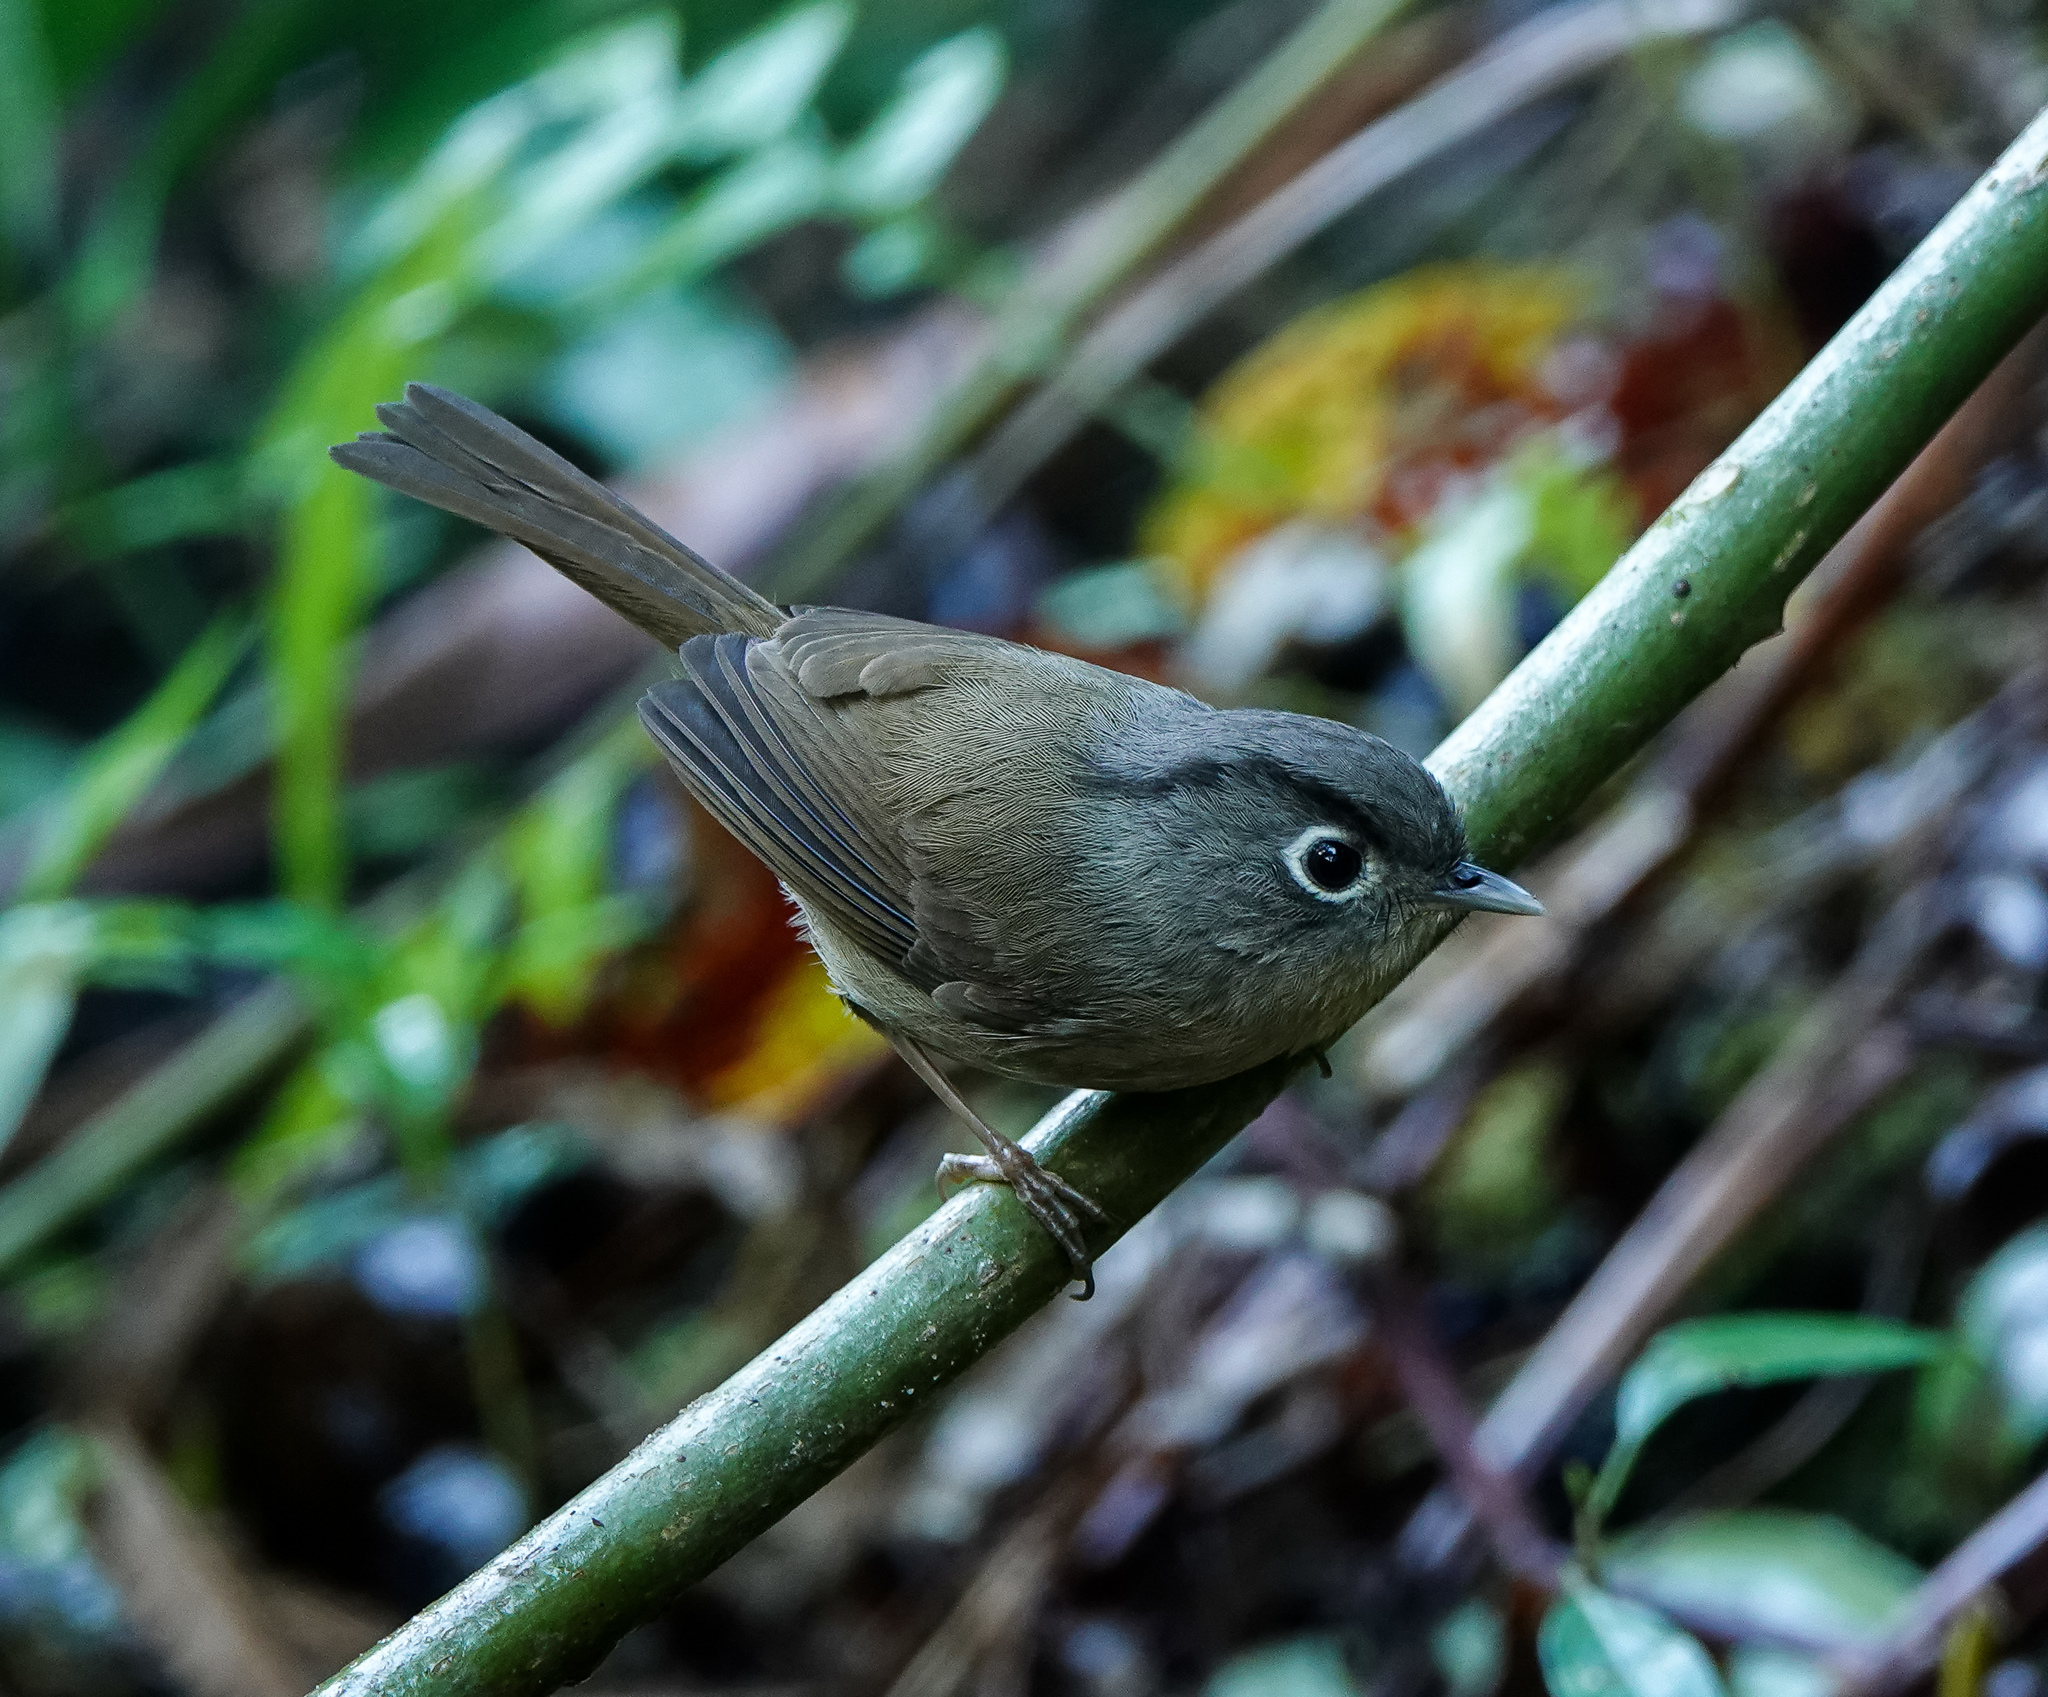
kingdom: Animalia
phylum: Chordata
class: Aves
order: Passeriformes
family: Pellorneidae
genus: Alcippe
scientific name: Alcippe nipalensis
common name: Nepal fulvetta
